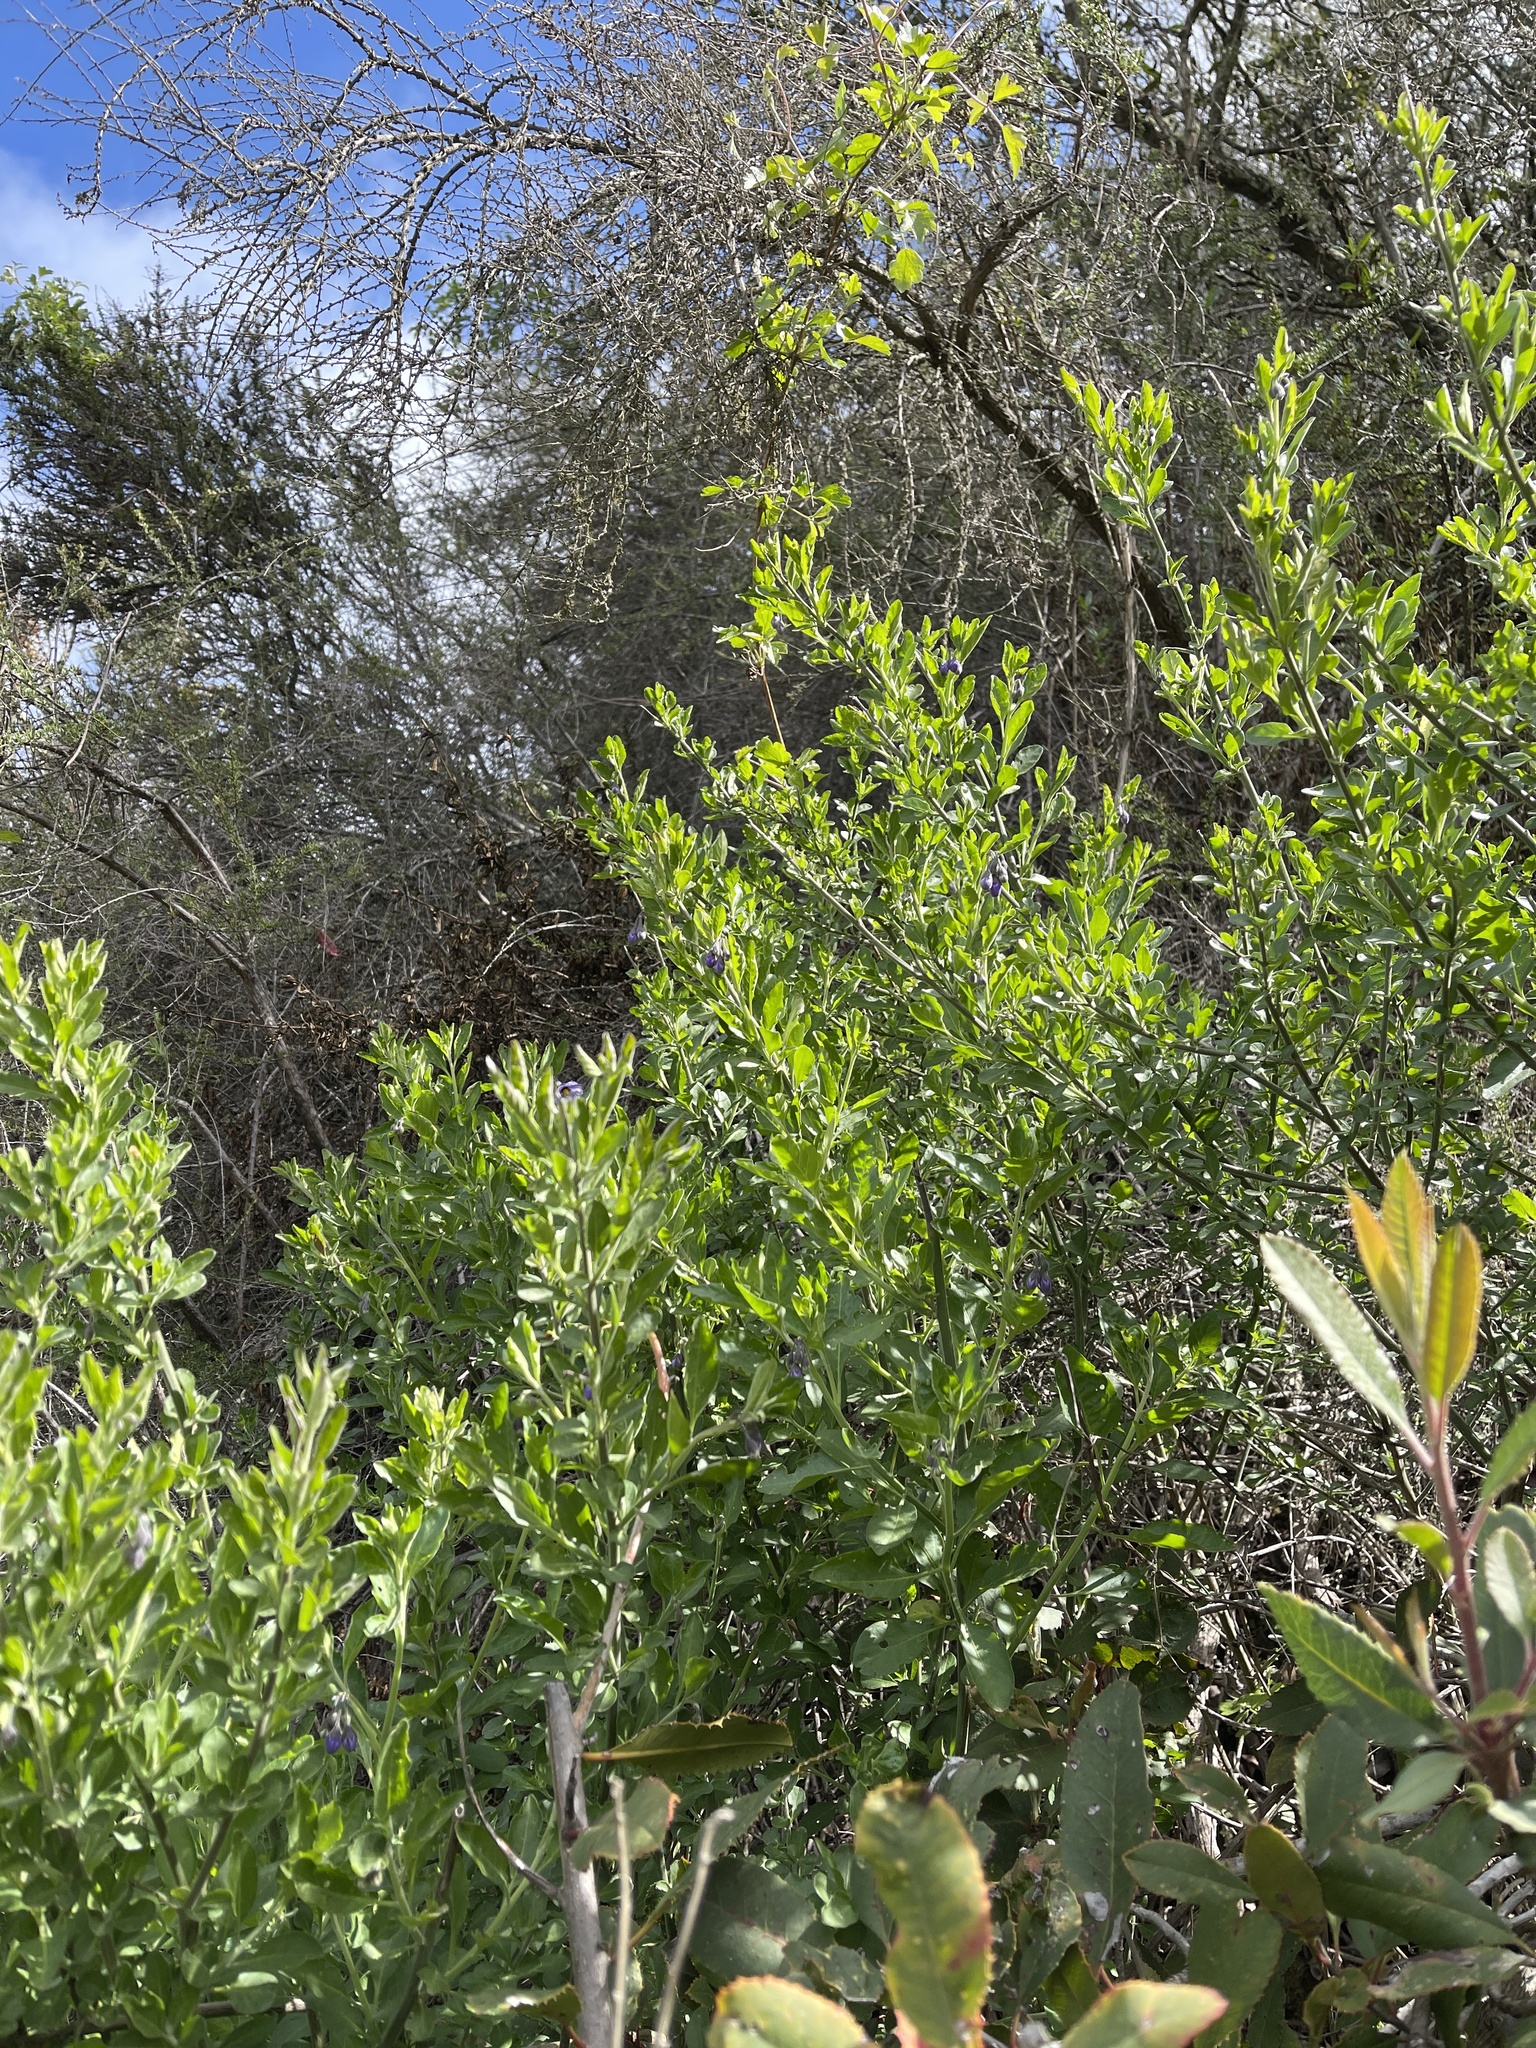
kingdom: Plantae
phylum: Tracheophyta
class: Magnoliopsida
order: Solanales
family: Solanaceae
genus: Solanum
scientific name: Solanum umbelliferum
